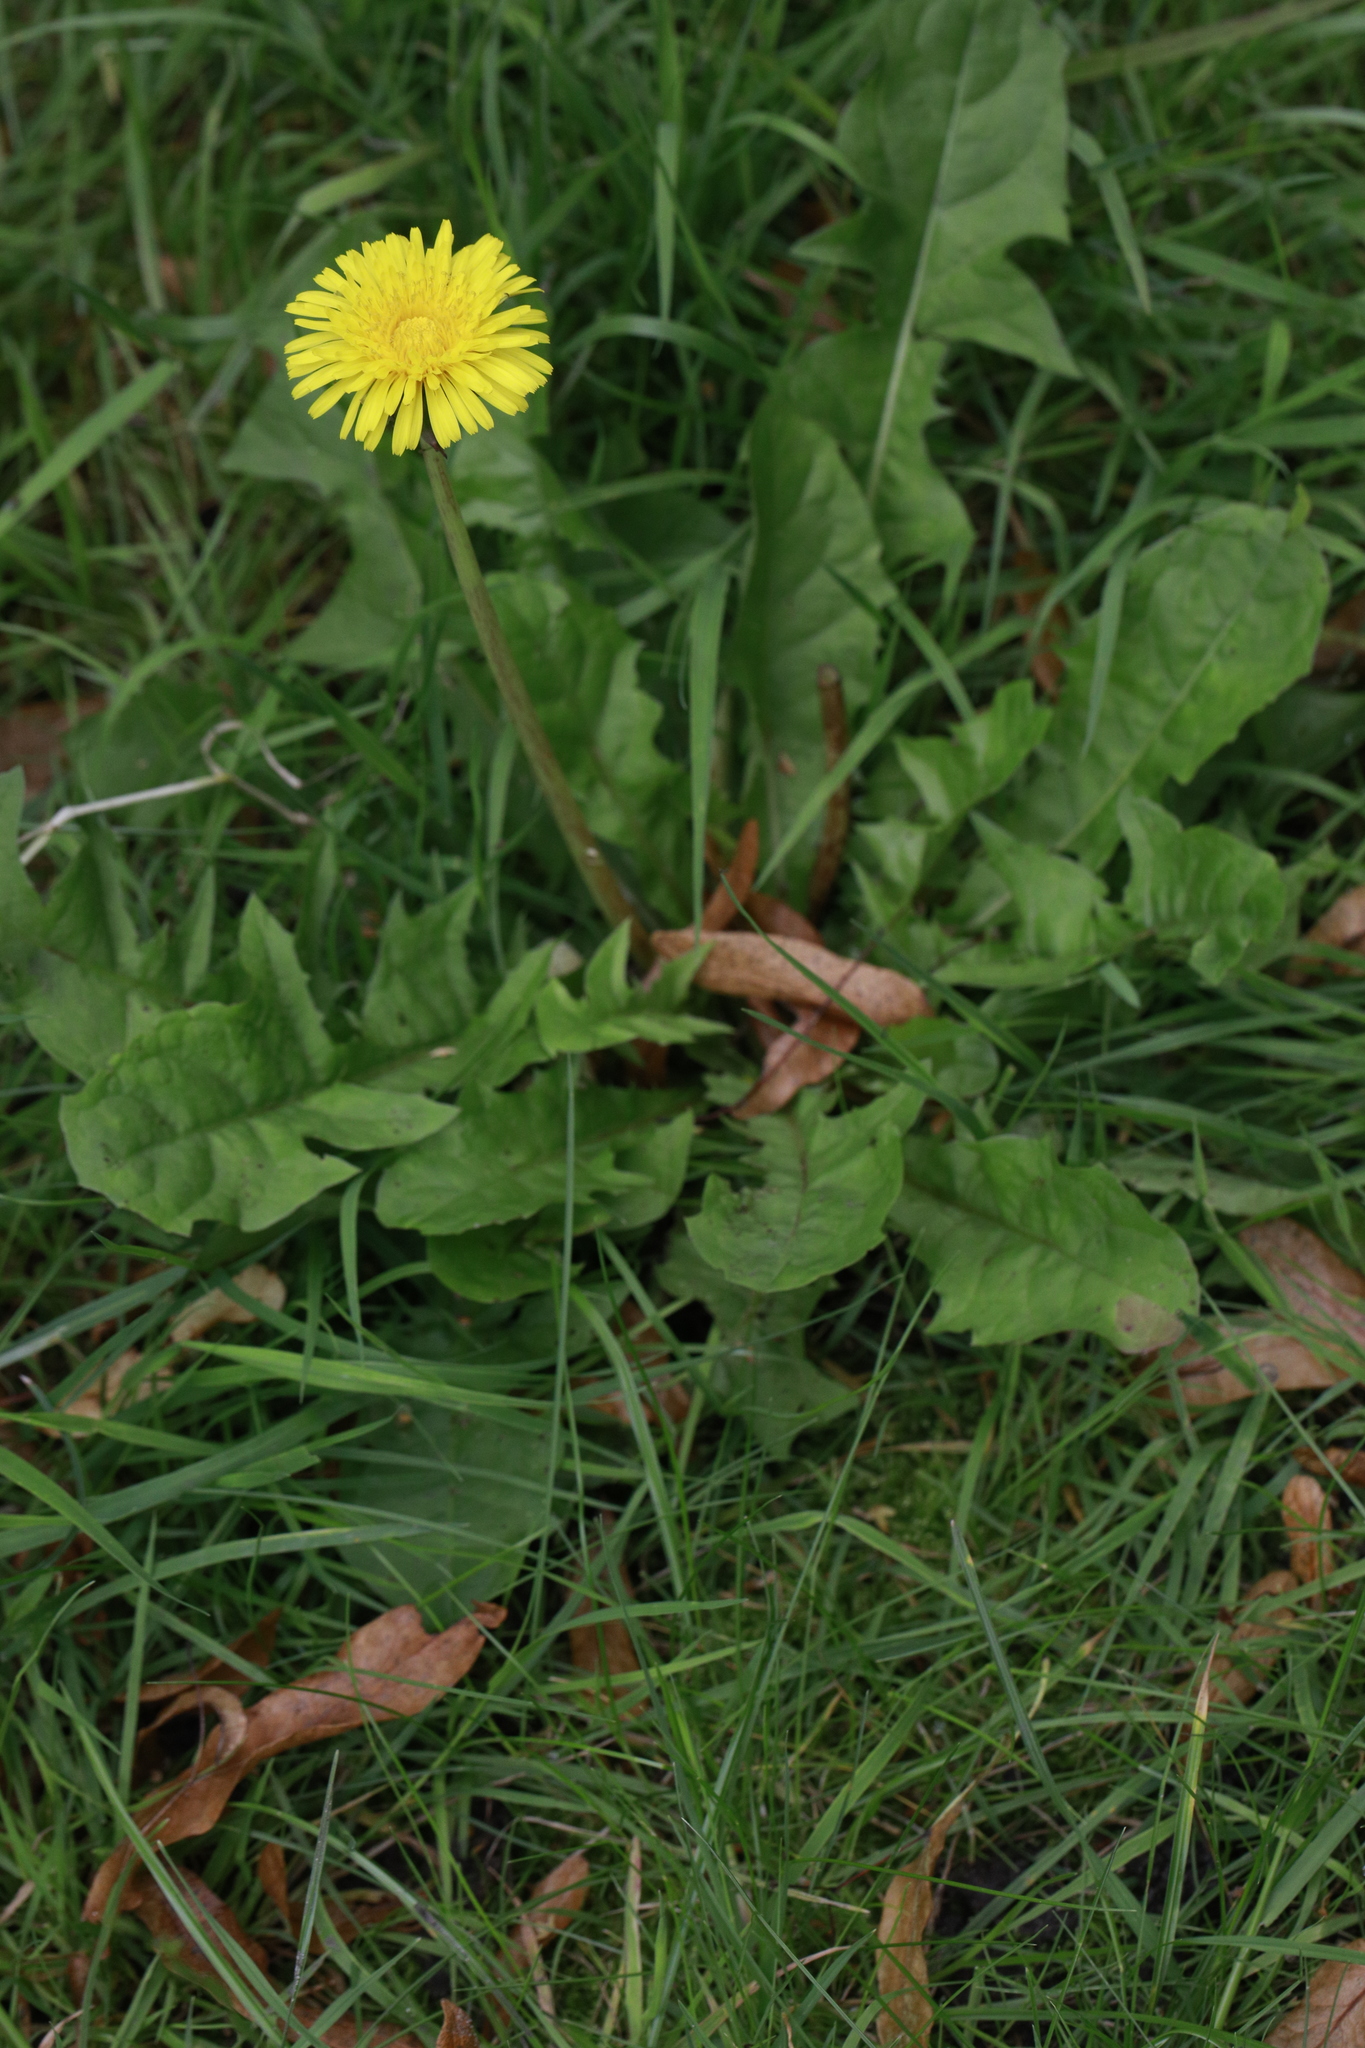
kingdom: Plantae
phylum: Tracheophyta
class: Magnoliopsida
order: Asterales
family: Asteraceae
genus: Taraxacum
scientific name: Taraxacum officinale
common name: Common dandelion
